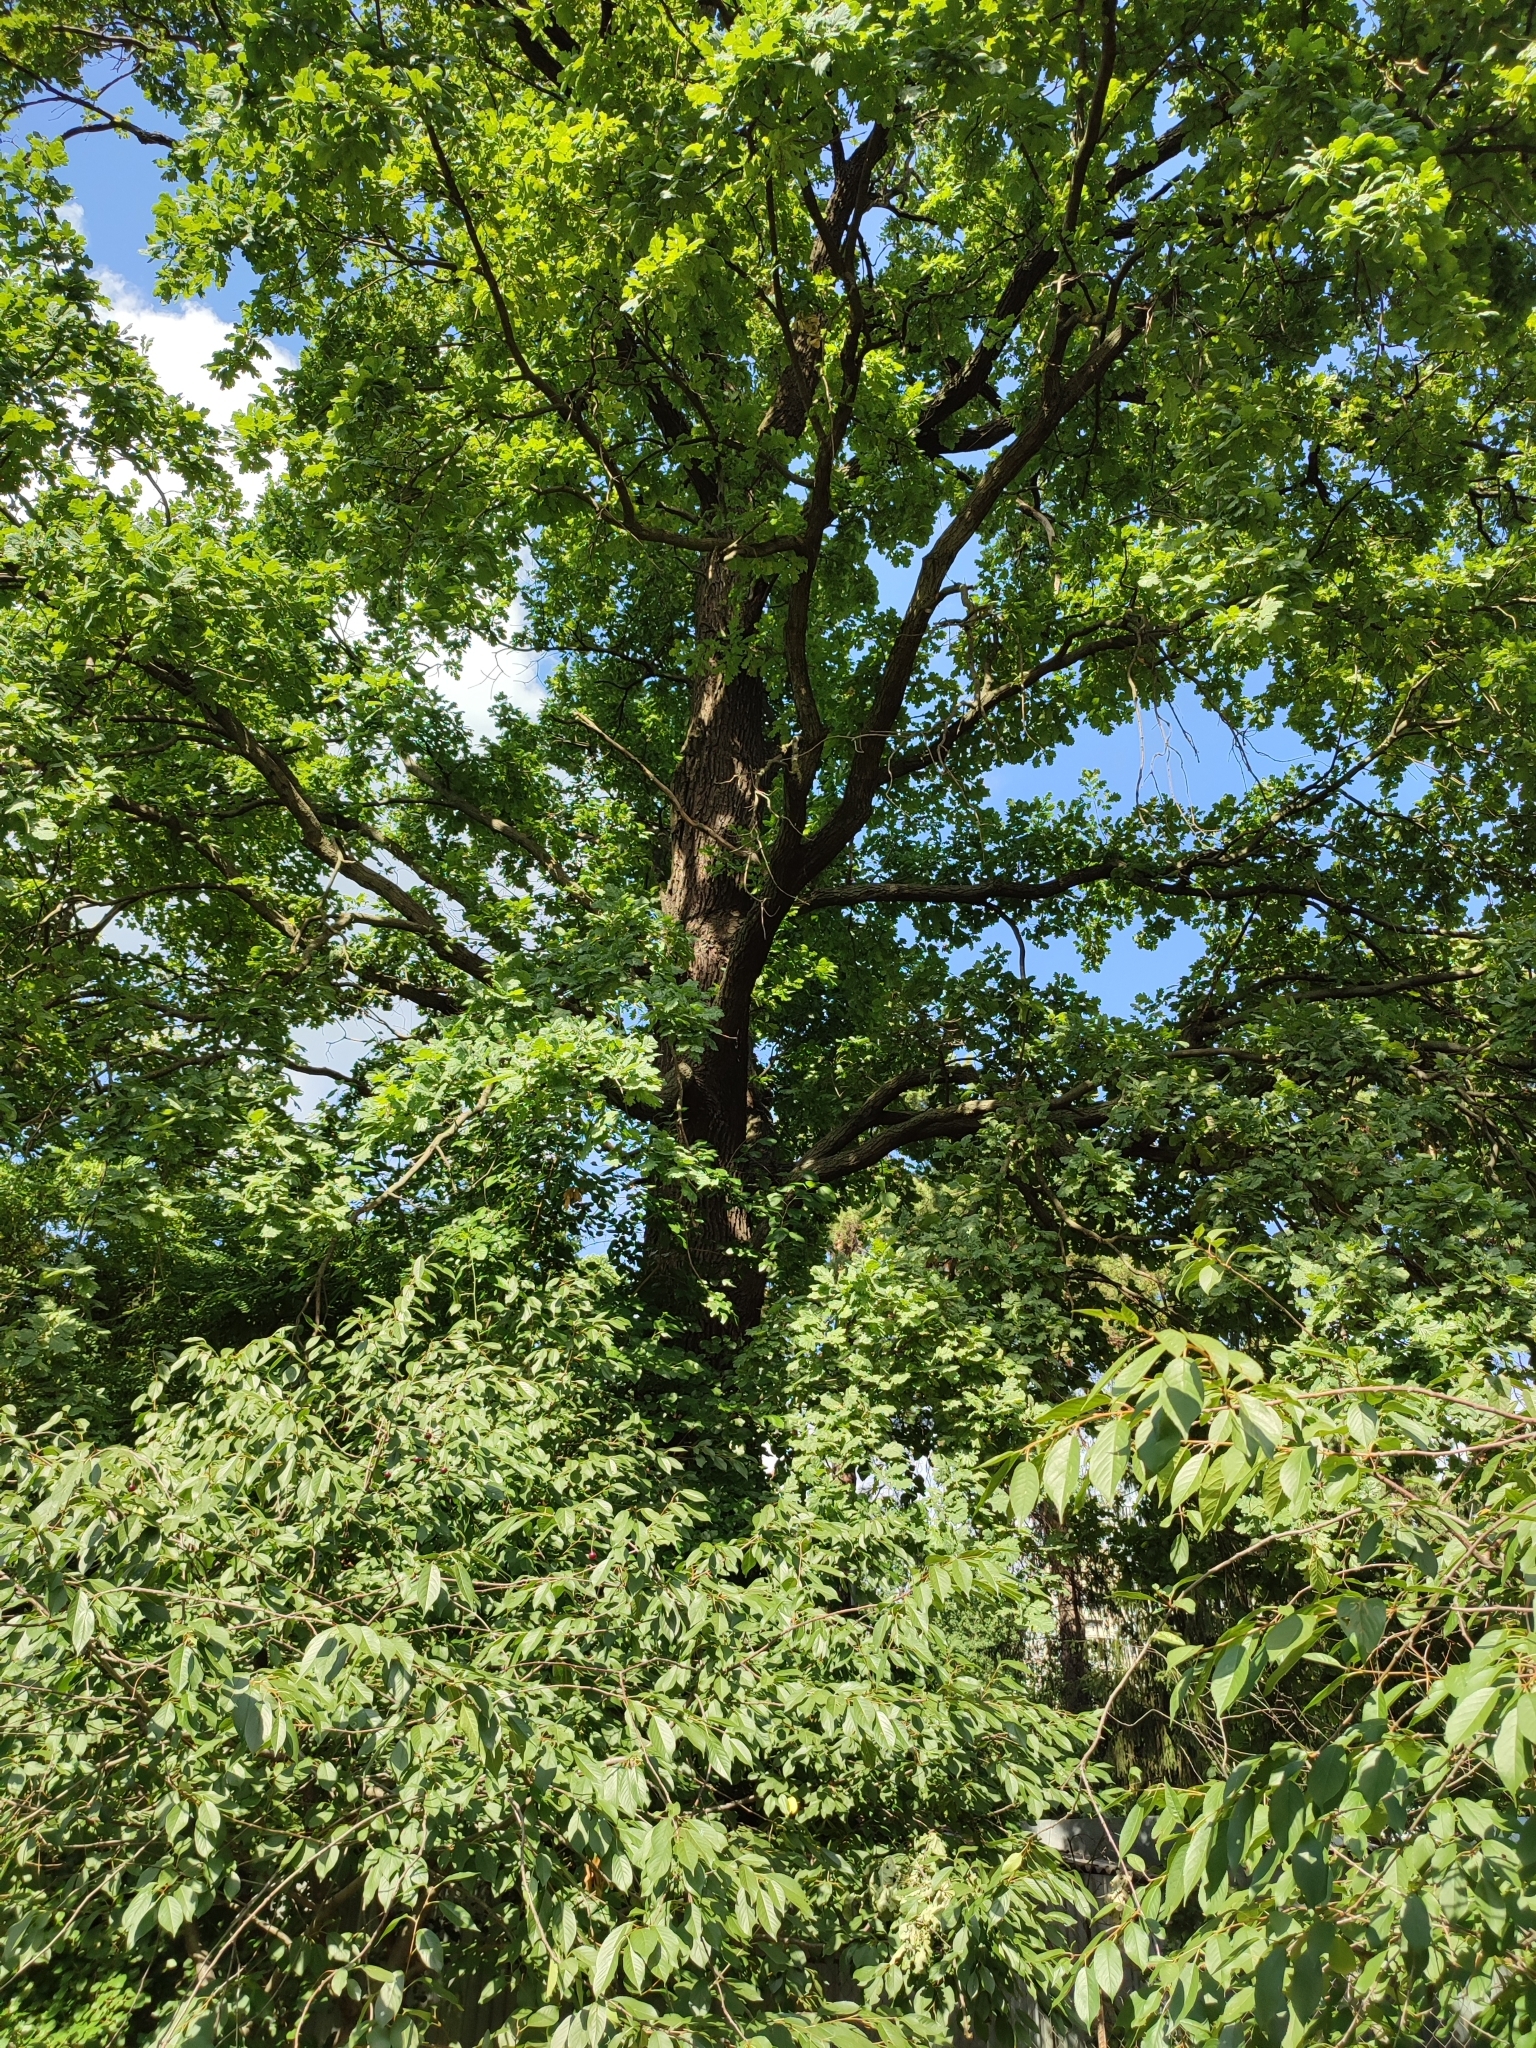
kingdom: Plantae
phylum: Tracheophyta
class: Magnoliopsida
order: Fagales
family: Fagaceae
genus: Quercus
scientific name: Quercus robur
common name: Pedunculate oak
